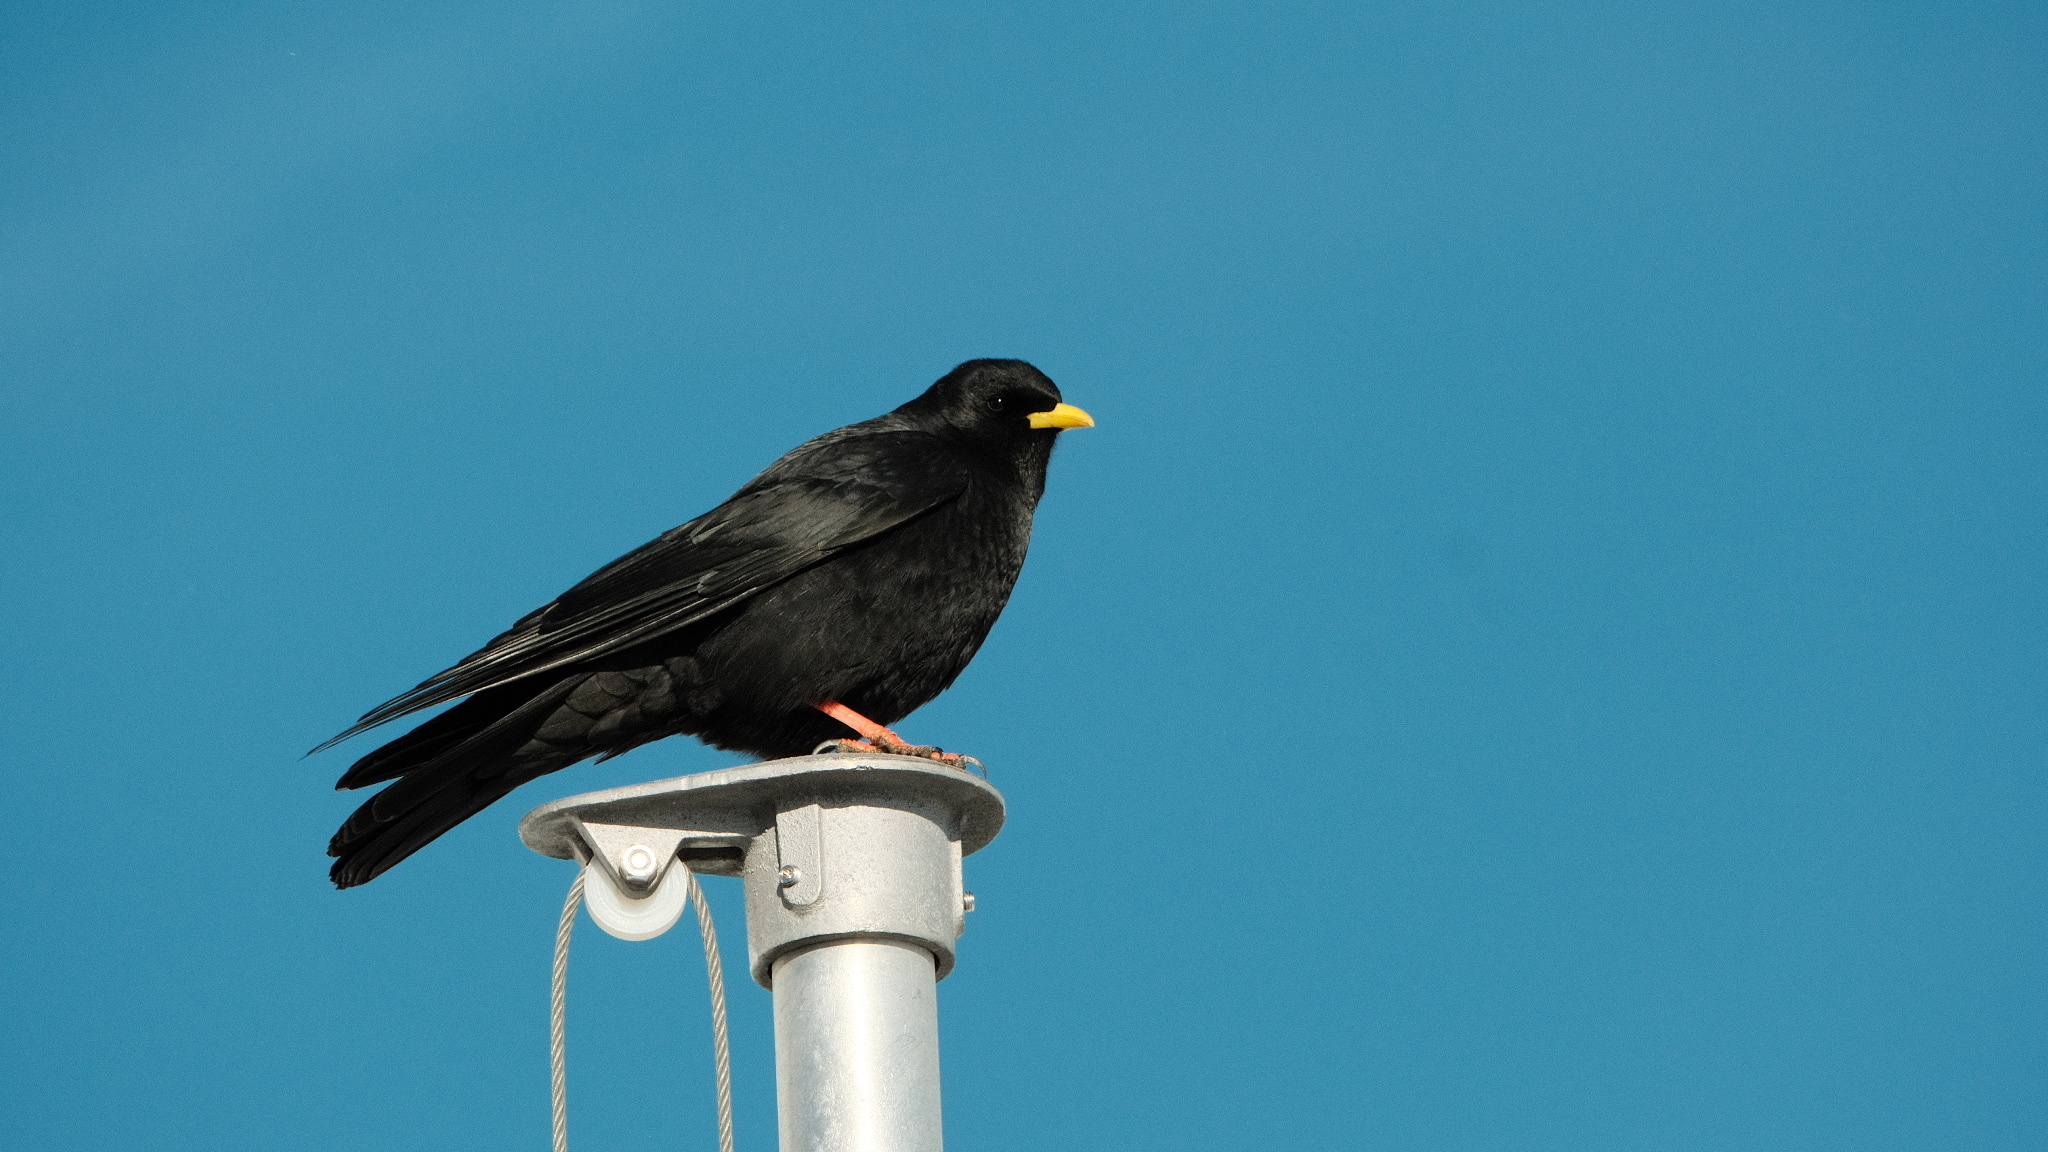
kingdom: Animalia
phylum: Chordata
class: Aves
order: Passeriformes
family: Corvidae
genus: Pyrrhocorax
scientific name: Pyrrhocorax graculus
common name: Alpine chough
